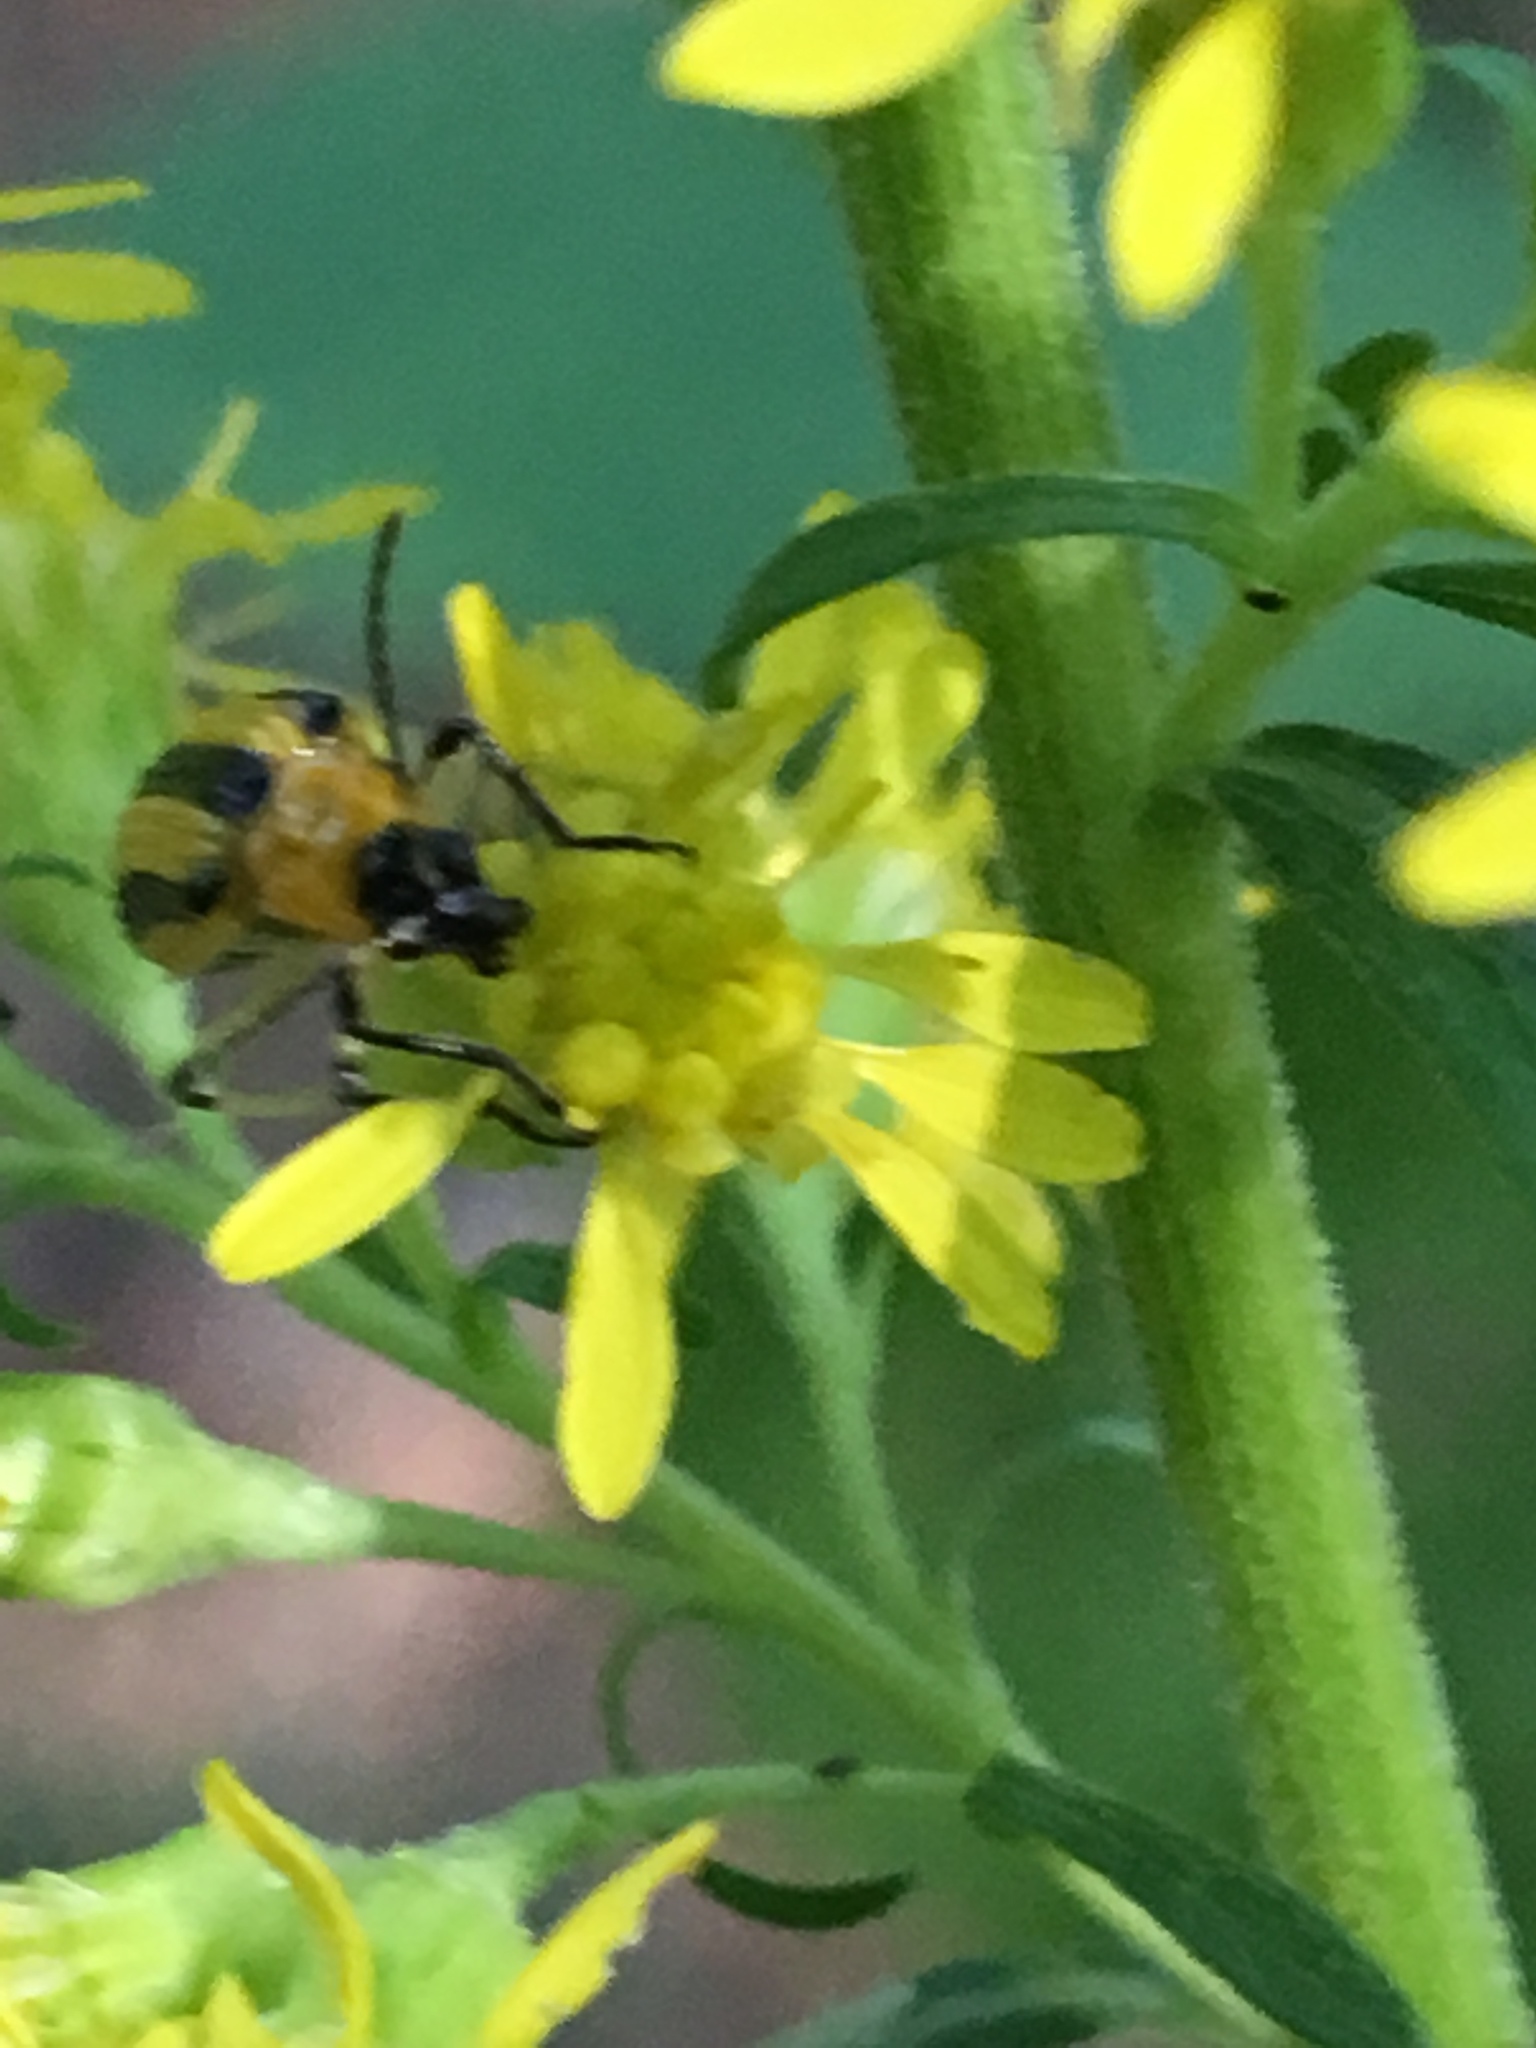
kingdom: Animalia
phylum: Arthropoda
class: Insecta
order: Coleoptera
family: Chrysomelidae
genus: Acalymma
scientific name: Acalymma vittatum
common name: Striped cucumber beetle
